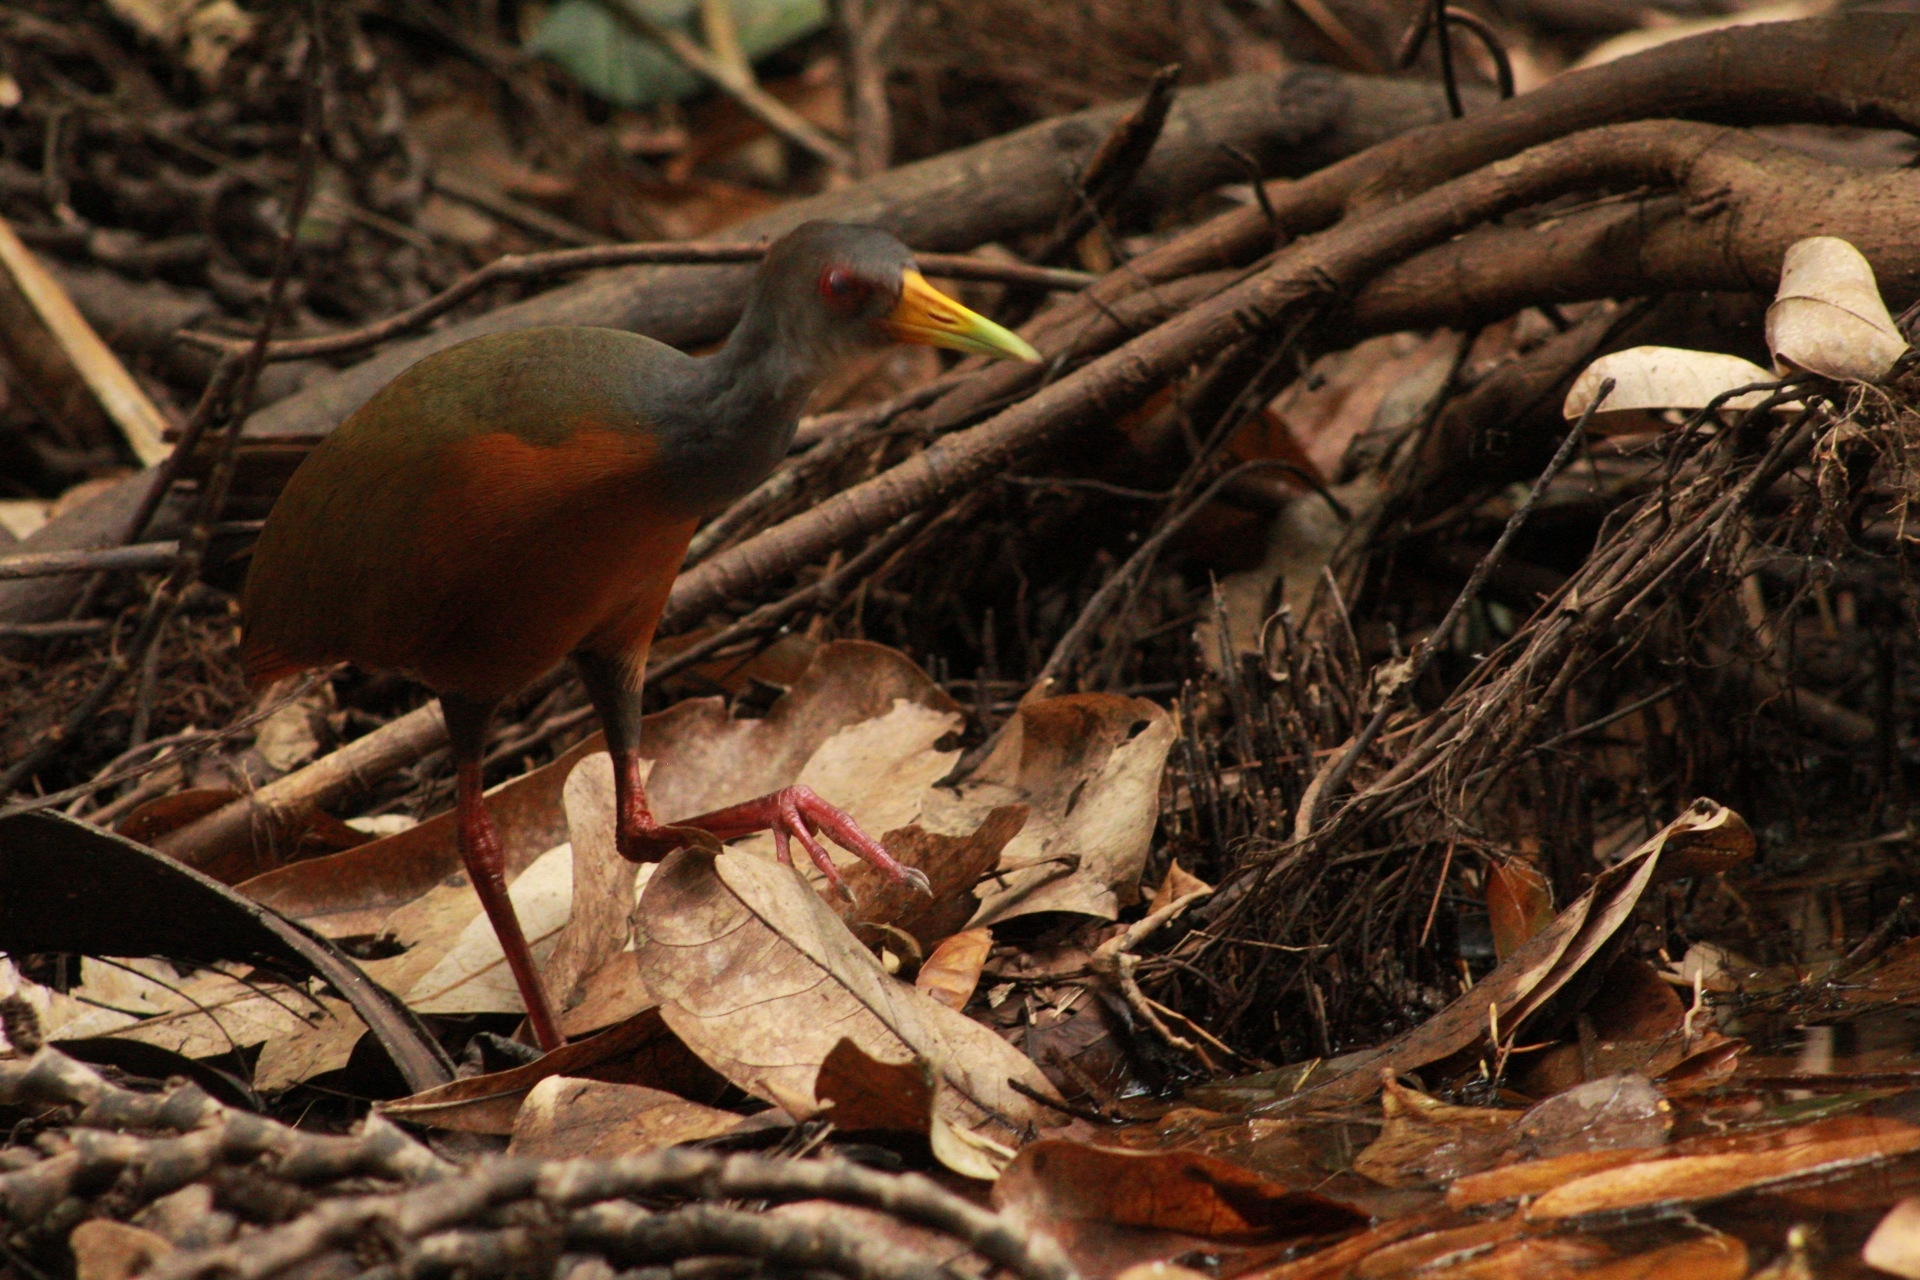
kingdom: Animalia
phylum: Chordata
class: Aves
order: Gruiformes
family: Rallidae
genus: Aramides
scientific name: Aramides cajanea
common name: Gray-necked wood-rail
